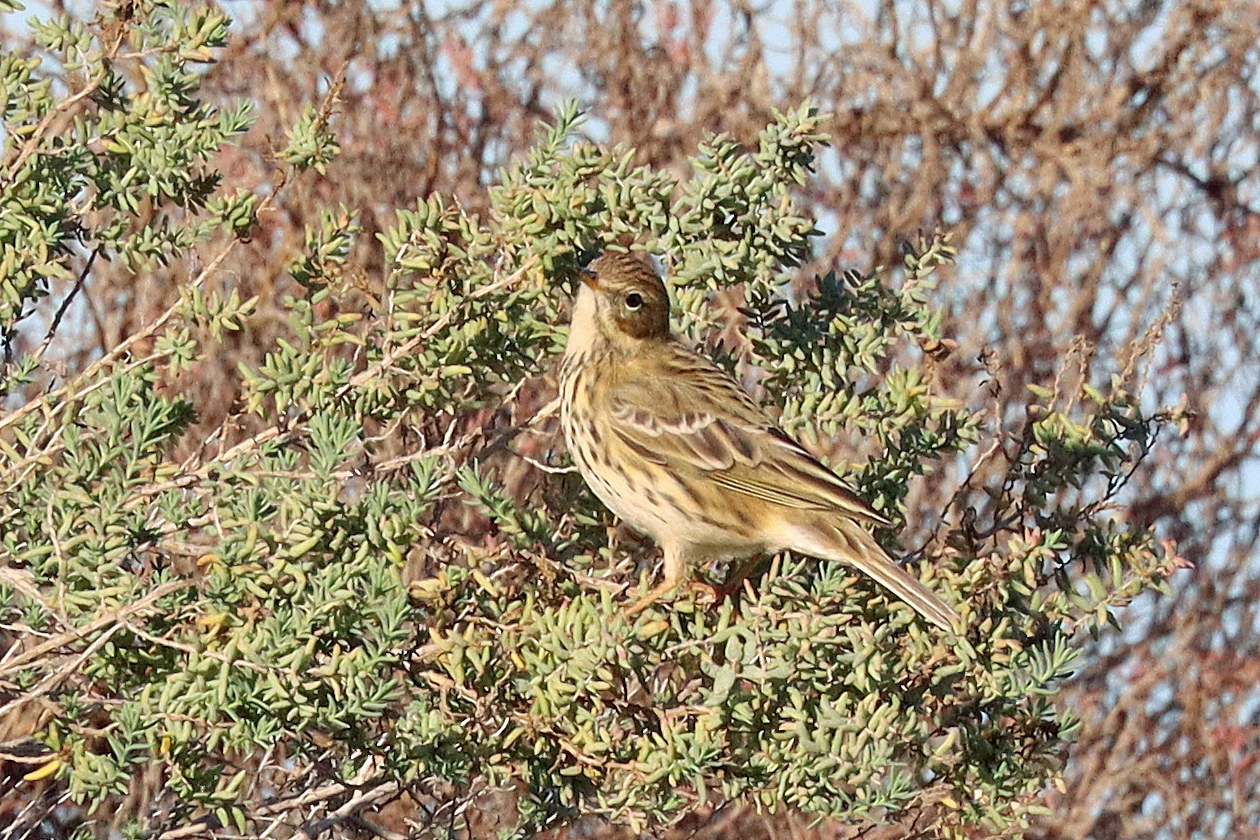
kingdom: Animalia
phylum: Chordata
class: Aves
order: Passeriformes
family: Motacillidae
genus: Anthus
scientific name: Anthus pratensis
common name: Meadow pipit
